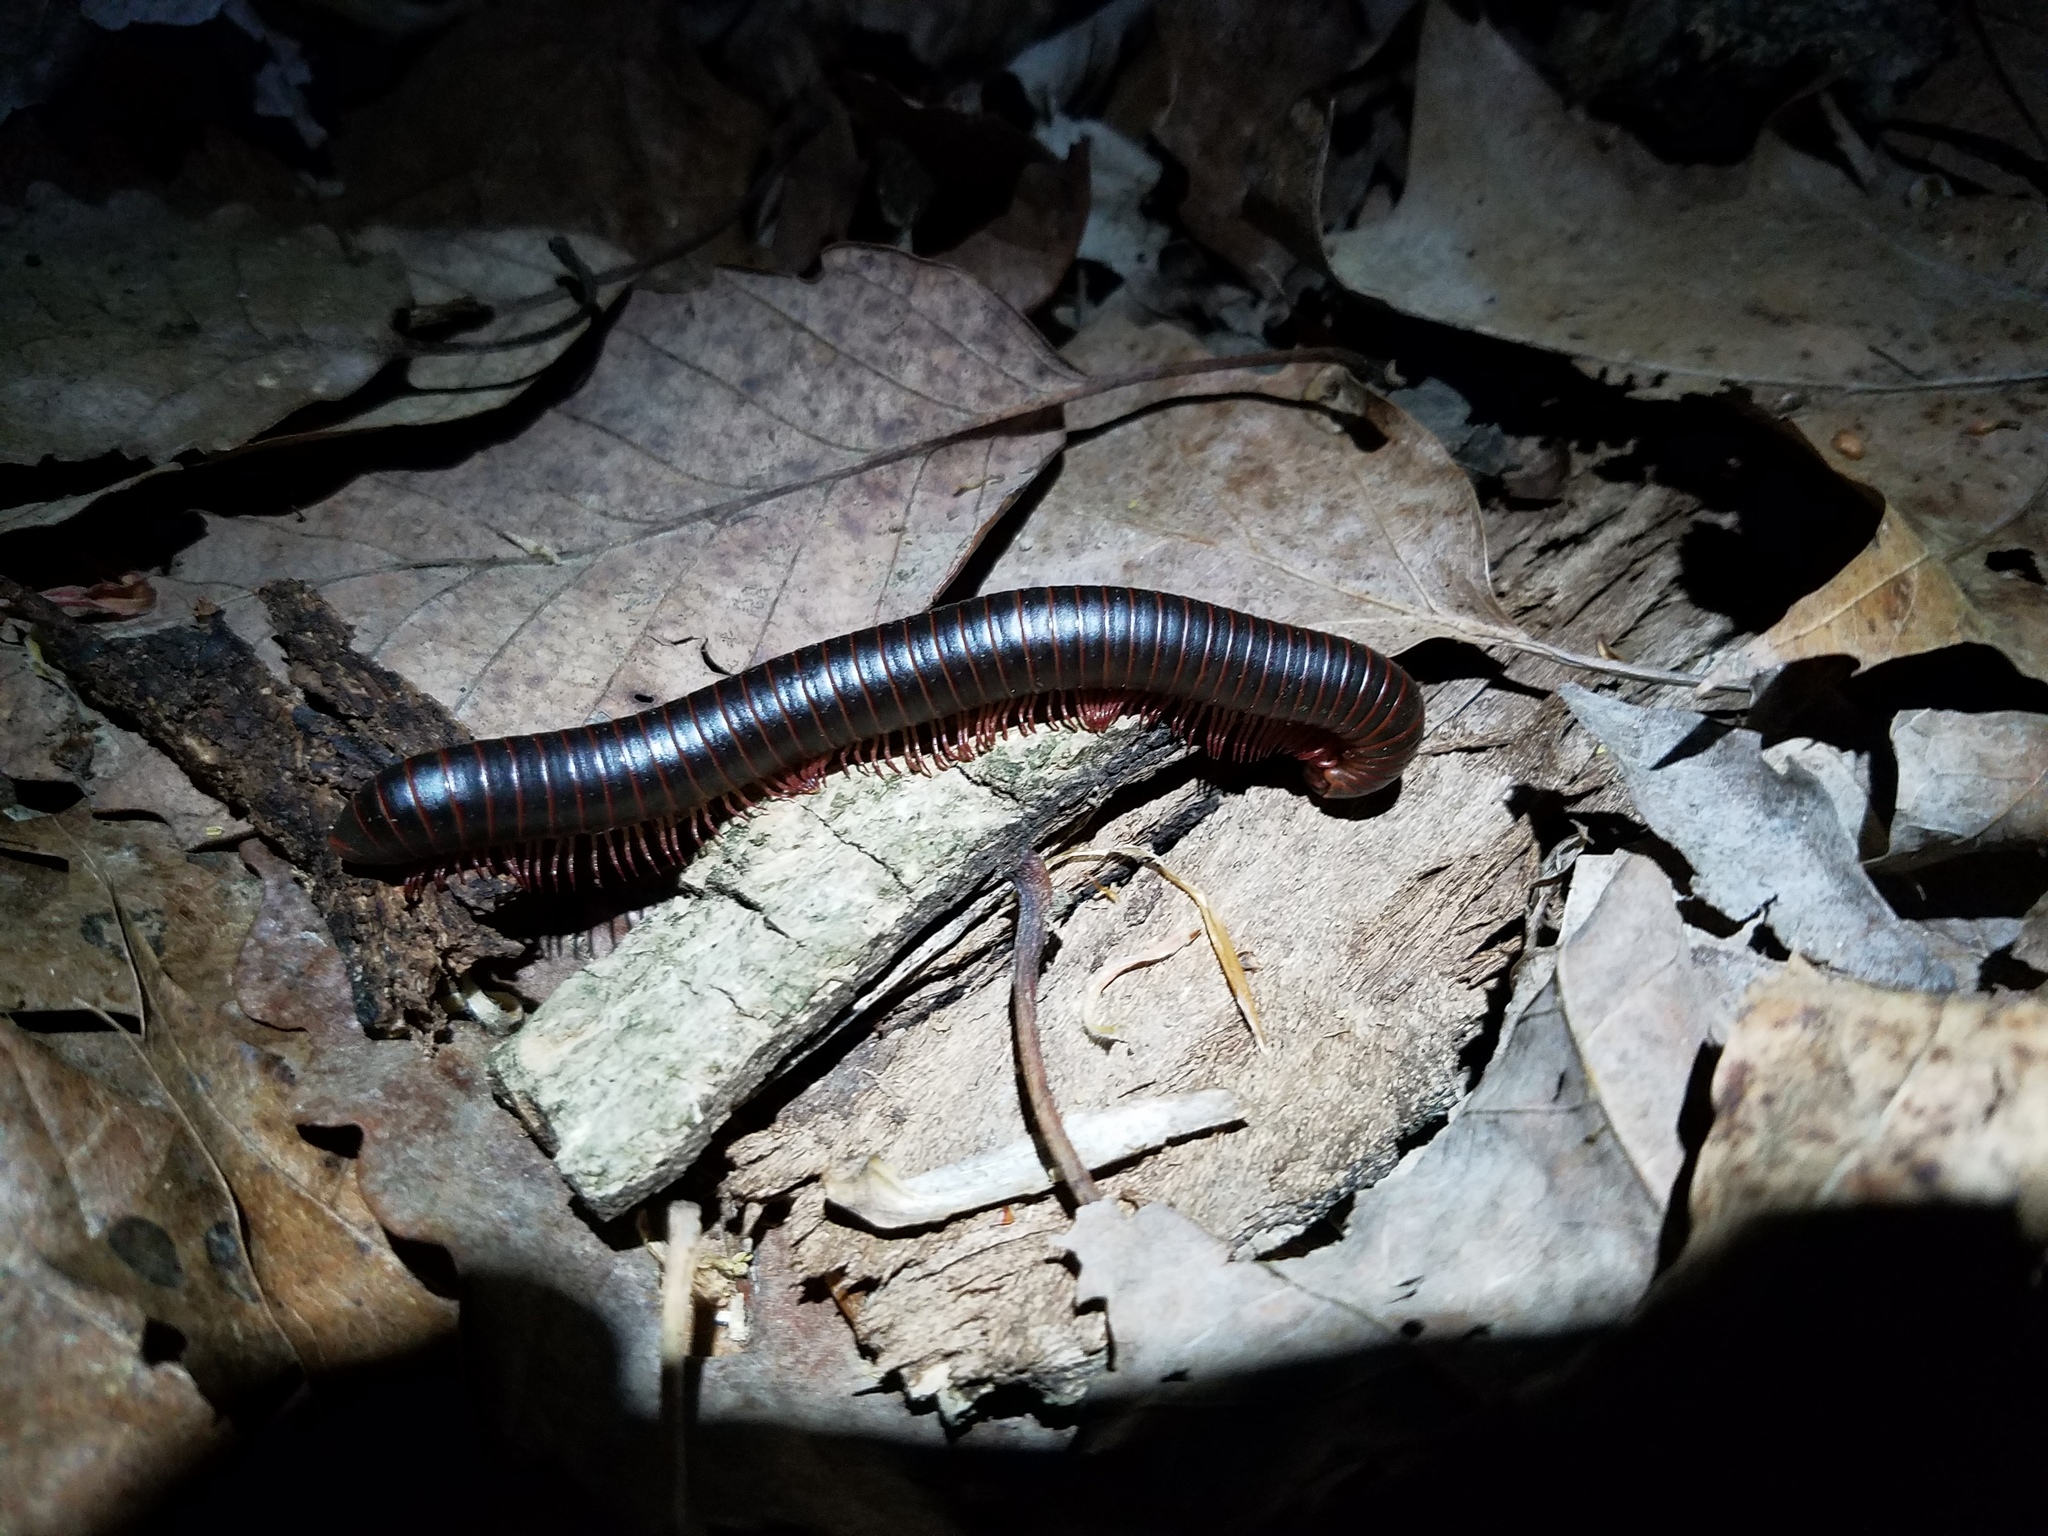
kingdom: Animalia
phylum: Arthropoda
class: Diplopoda
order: Spirobolida
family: Spirobolidae
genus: Narceus
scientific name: Narceus
